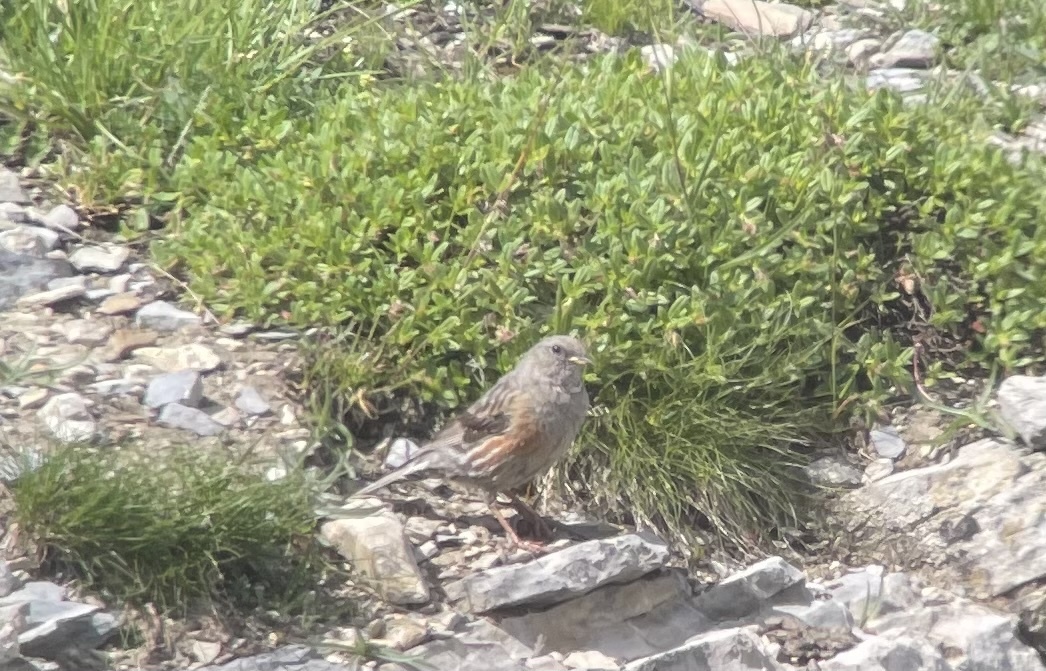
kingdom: Animalia
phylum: Chordata
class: Aves
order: Passeriformes
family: Prunellidae
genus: Prunella
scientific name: Prunella collaris
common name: Alpine accentor
